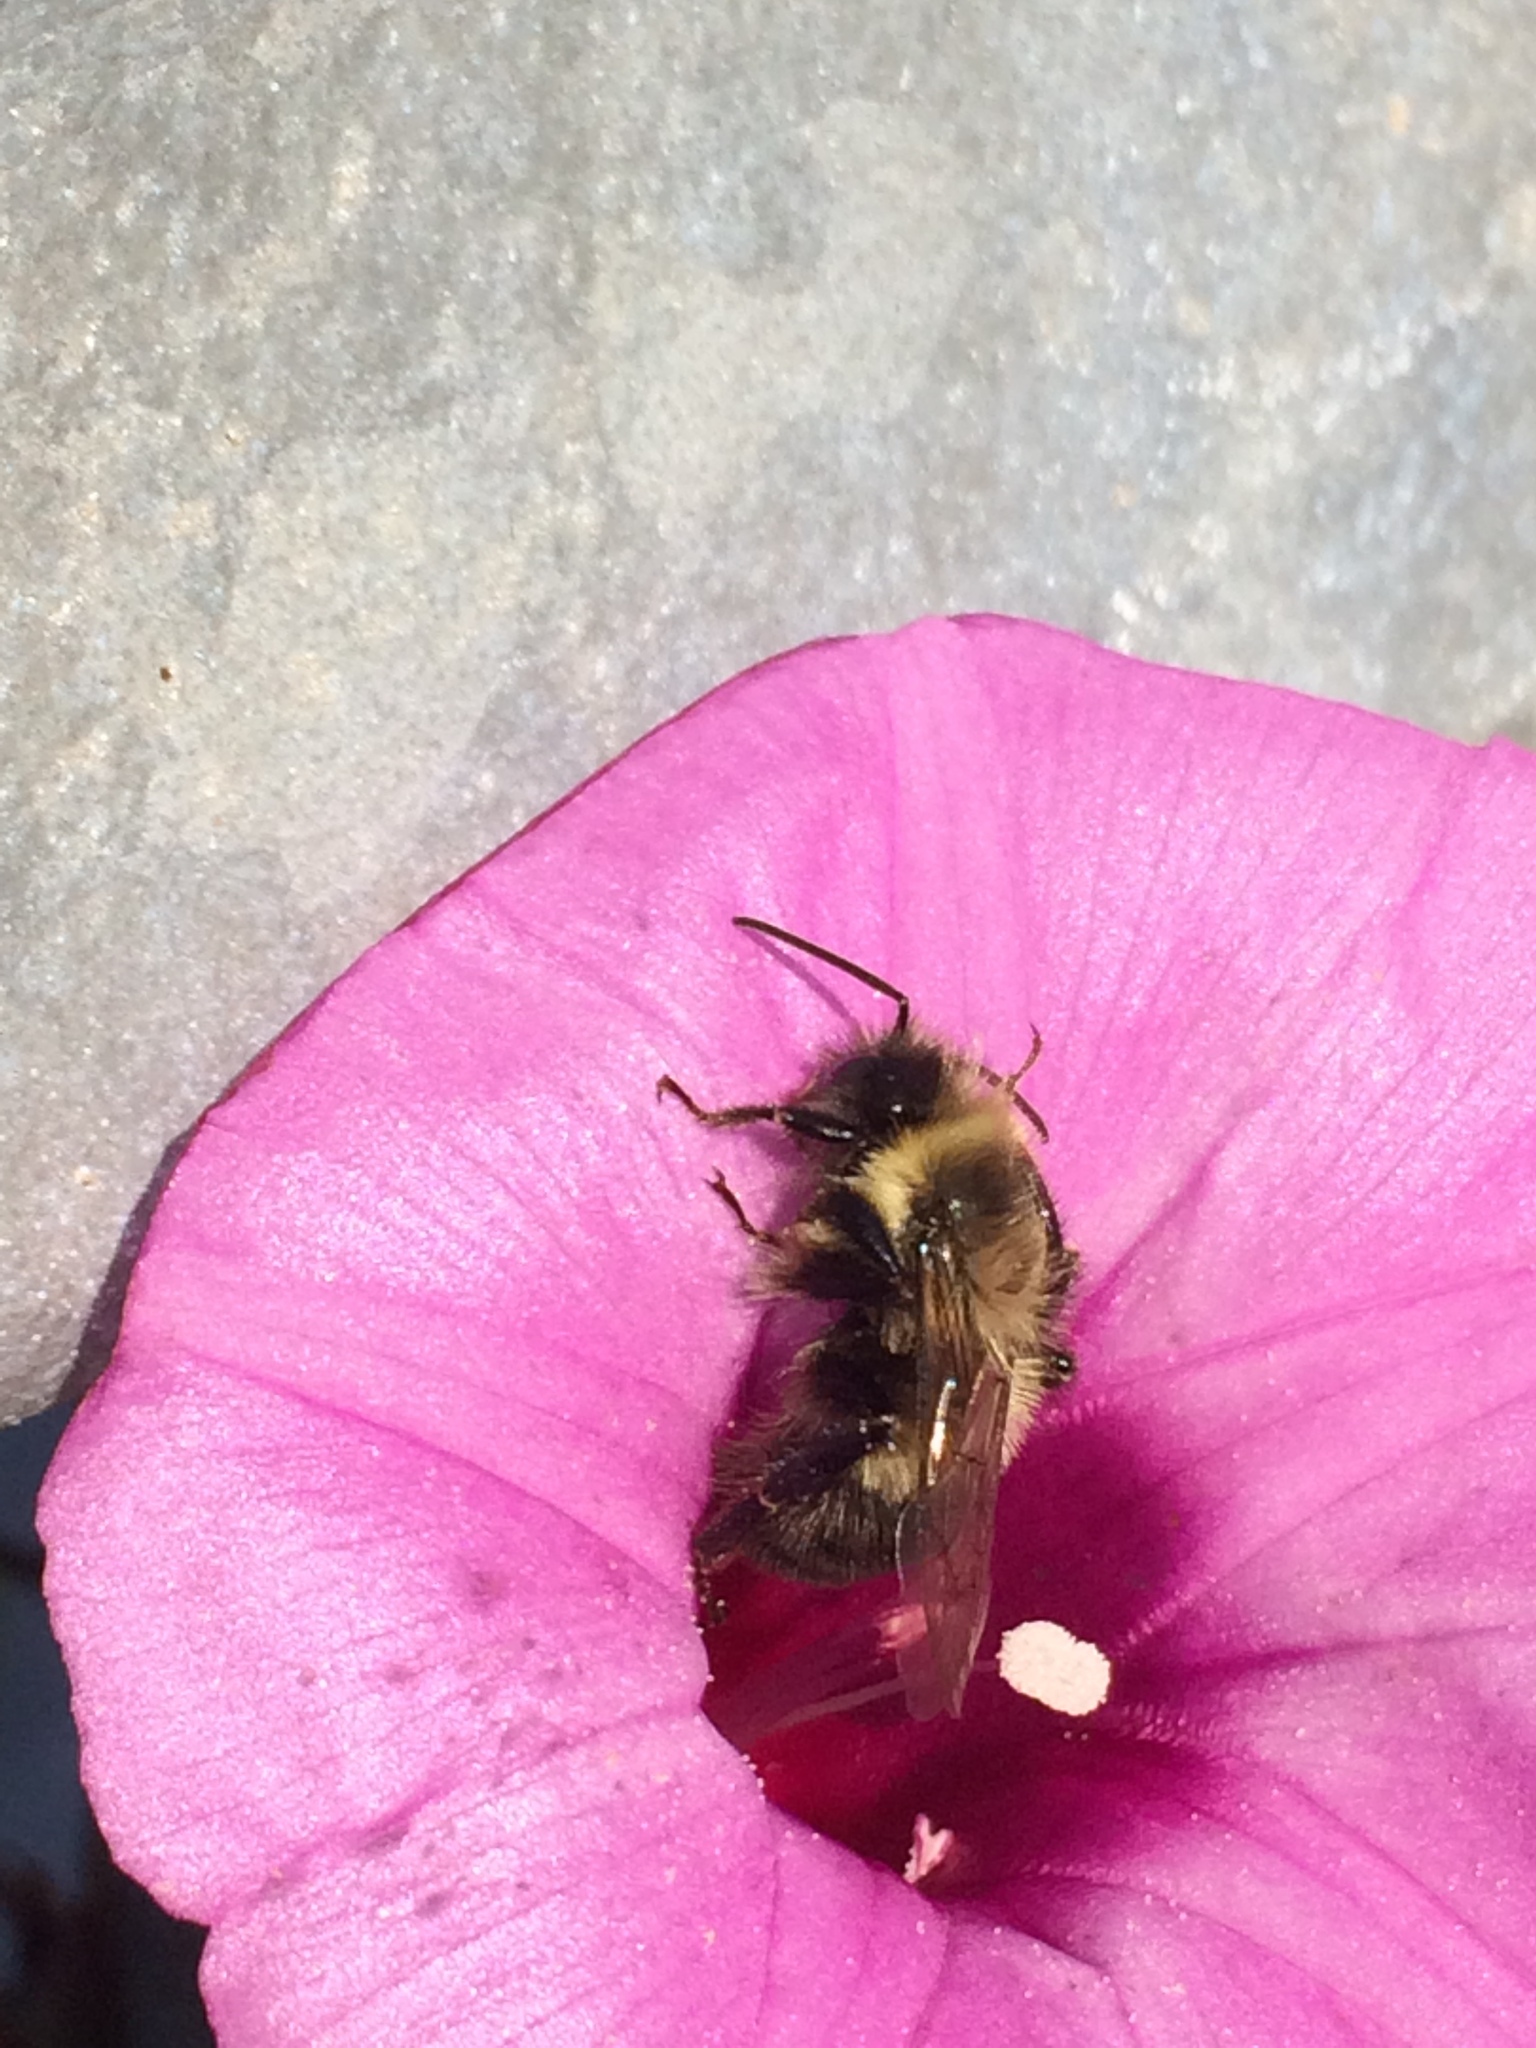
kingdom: Animalia
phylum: Arthropoda
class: Insecta
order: Hymenoptera
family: Apidae
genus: Bombus
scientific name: Bombus impatiens
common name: Common eastern bumble bee
